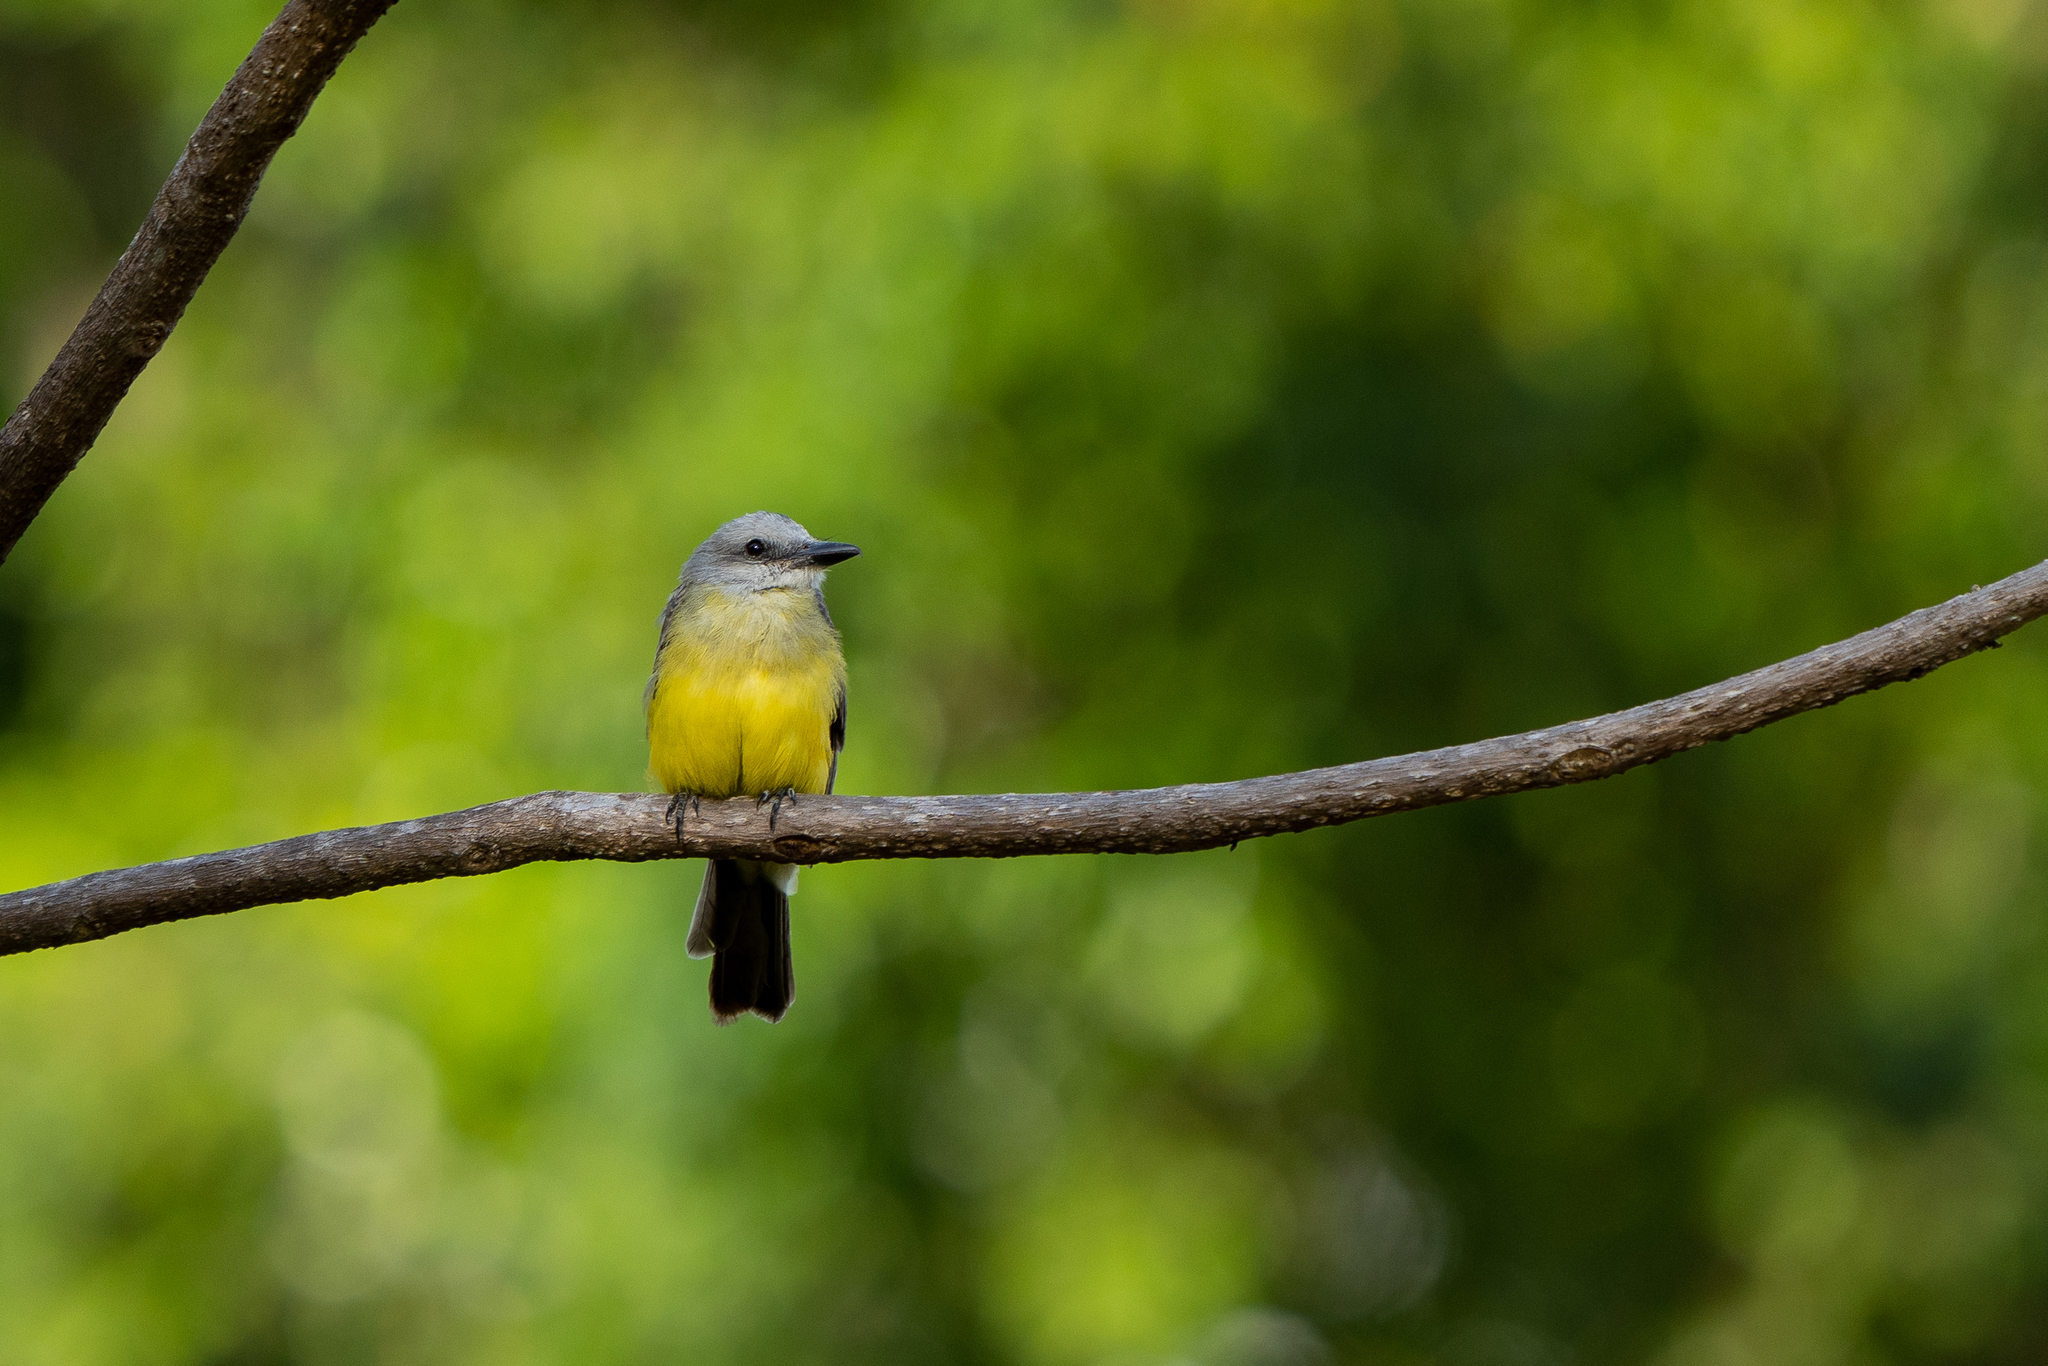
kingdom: Animalia
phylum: Chordata
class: Aves
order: Passeriformes
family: Tyrannidae
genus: Tyrannus
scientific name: Tyrannus melancholicus
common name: Tropical kingbird
